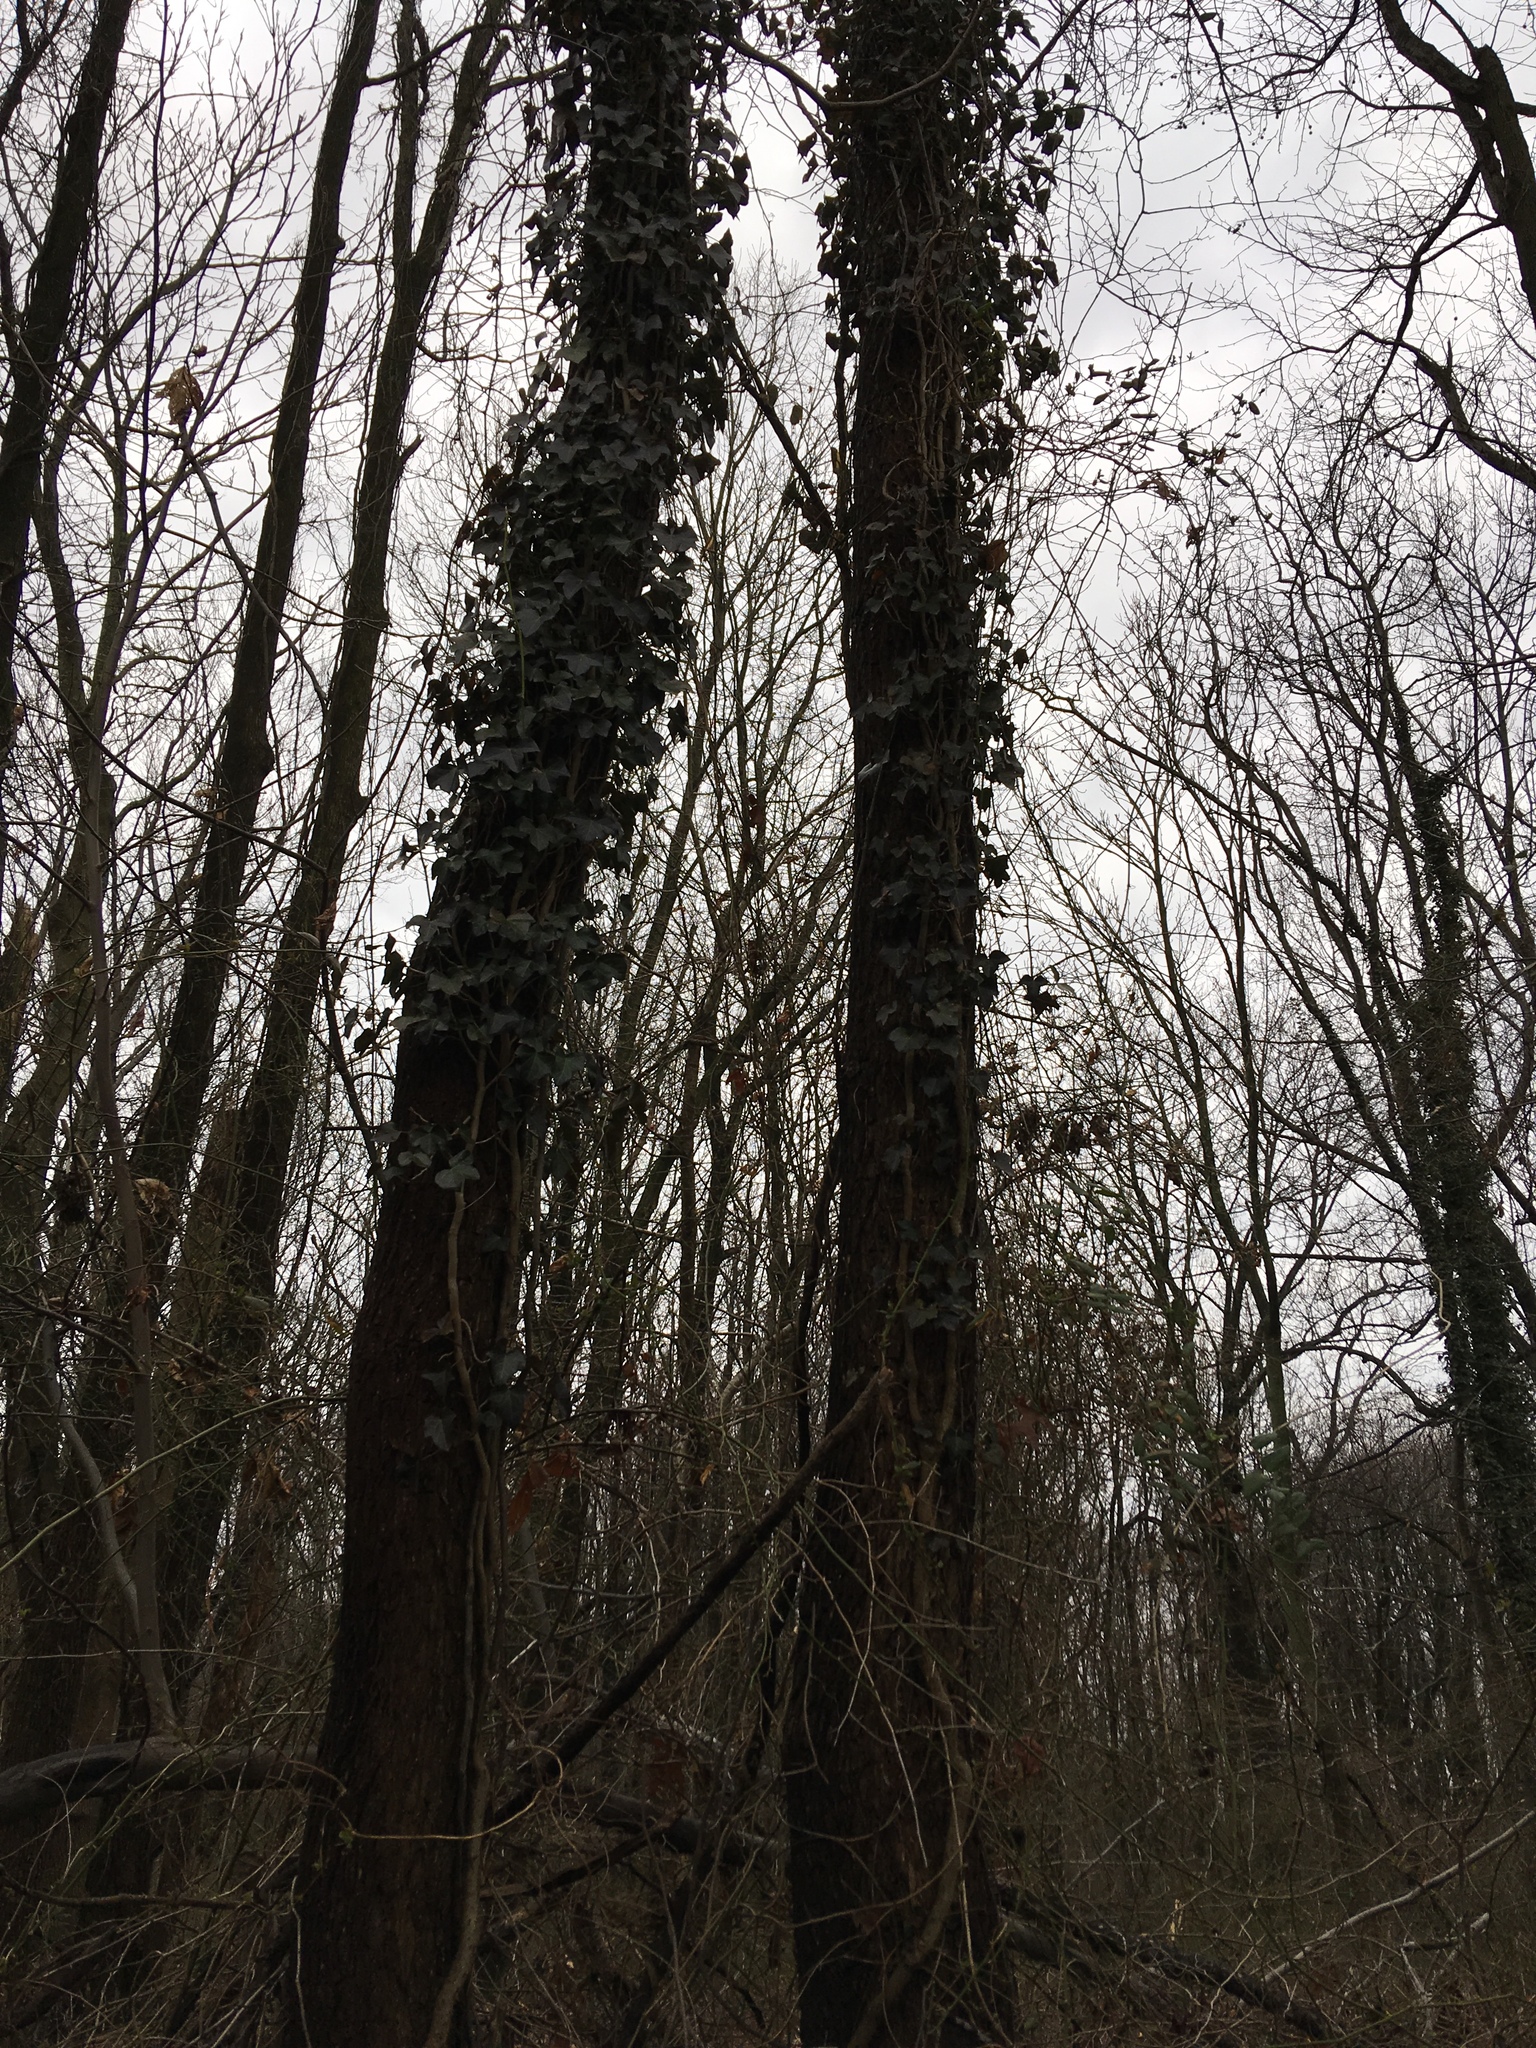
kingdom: Plantae
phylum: Tracheophyta
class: Magnoliopsida
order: Apiales
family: Araliaceae
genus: Hedera
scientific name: Hedera helix
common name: Ivy
